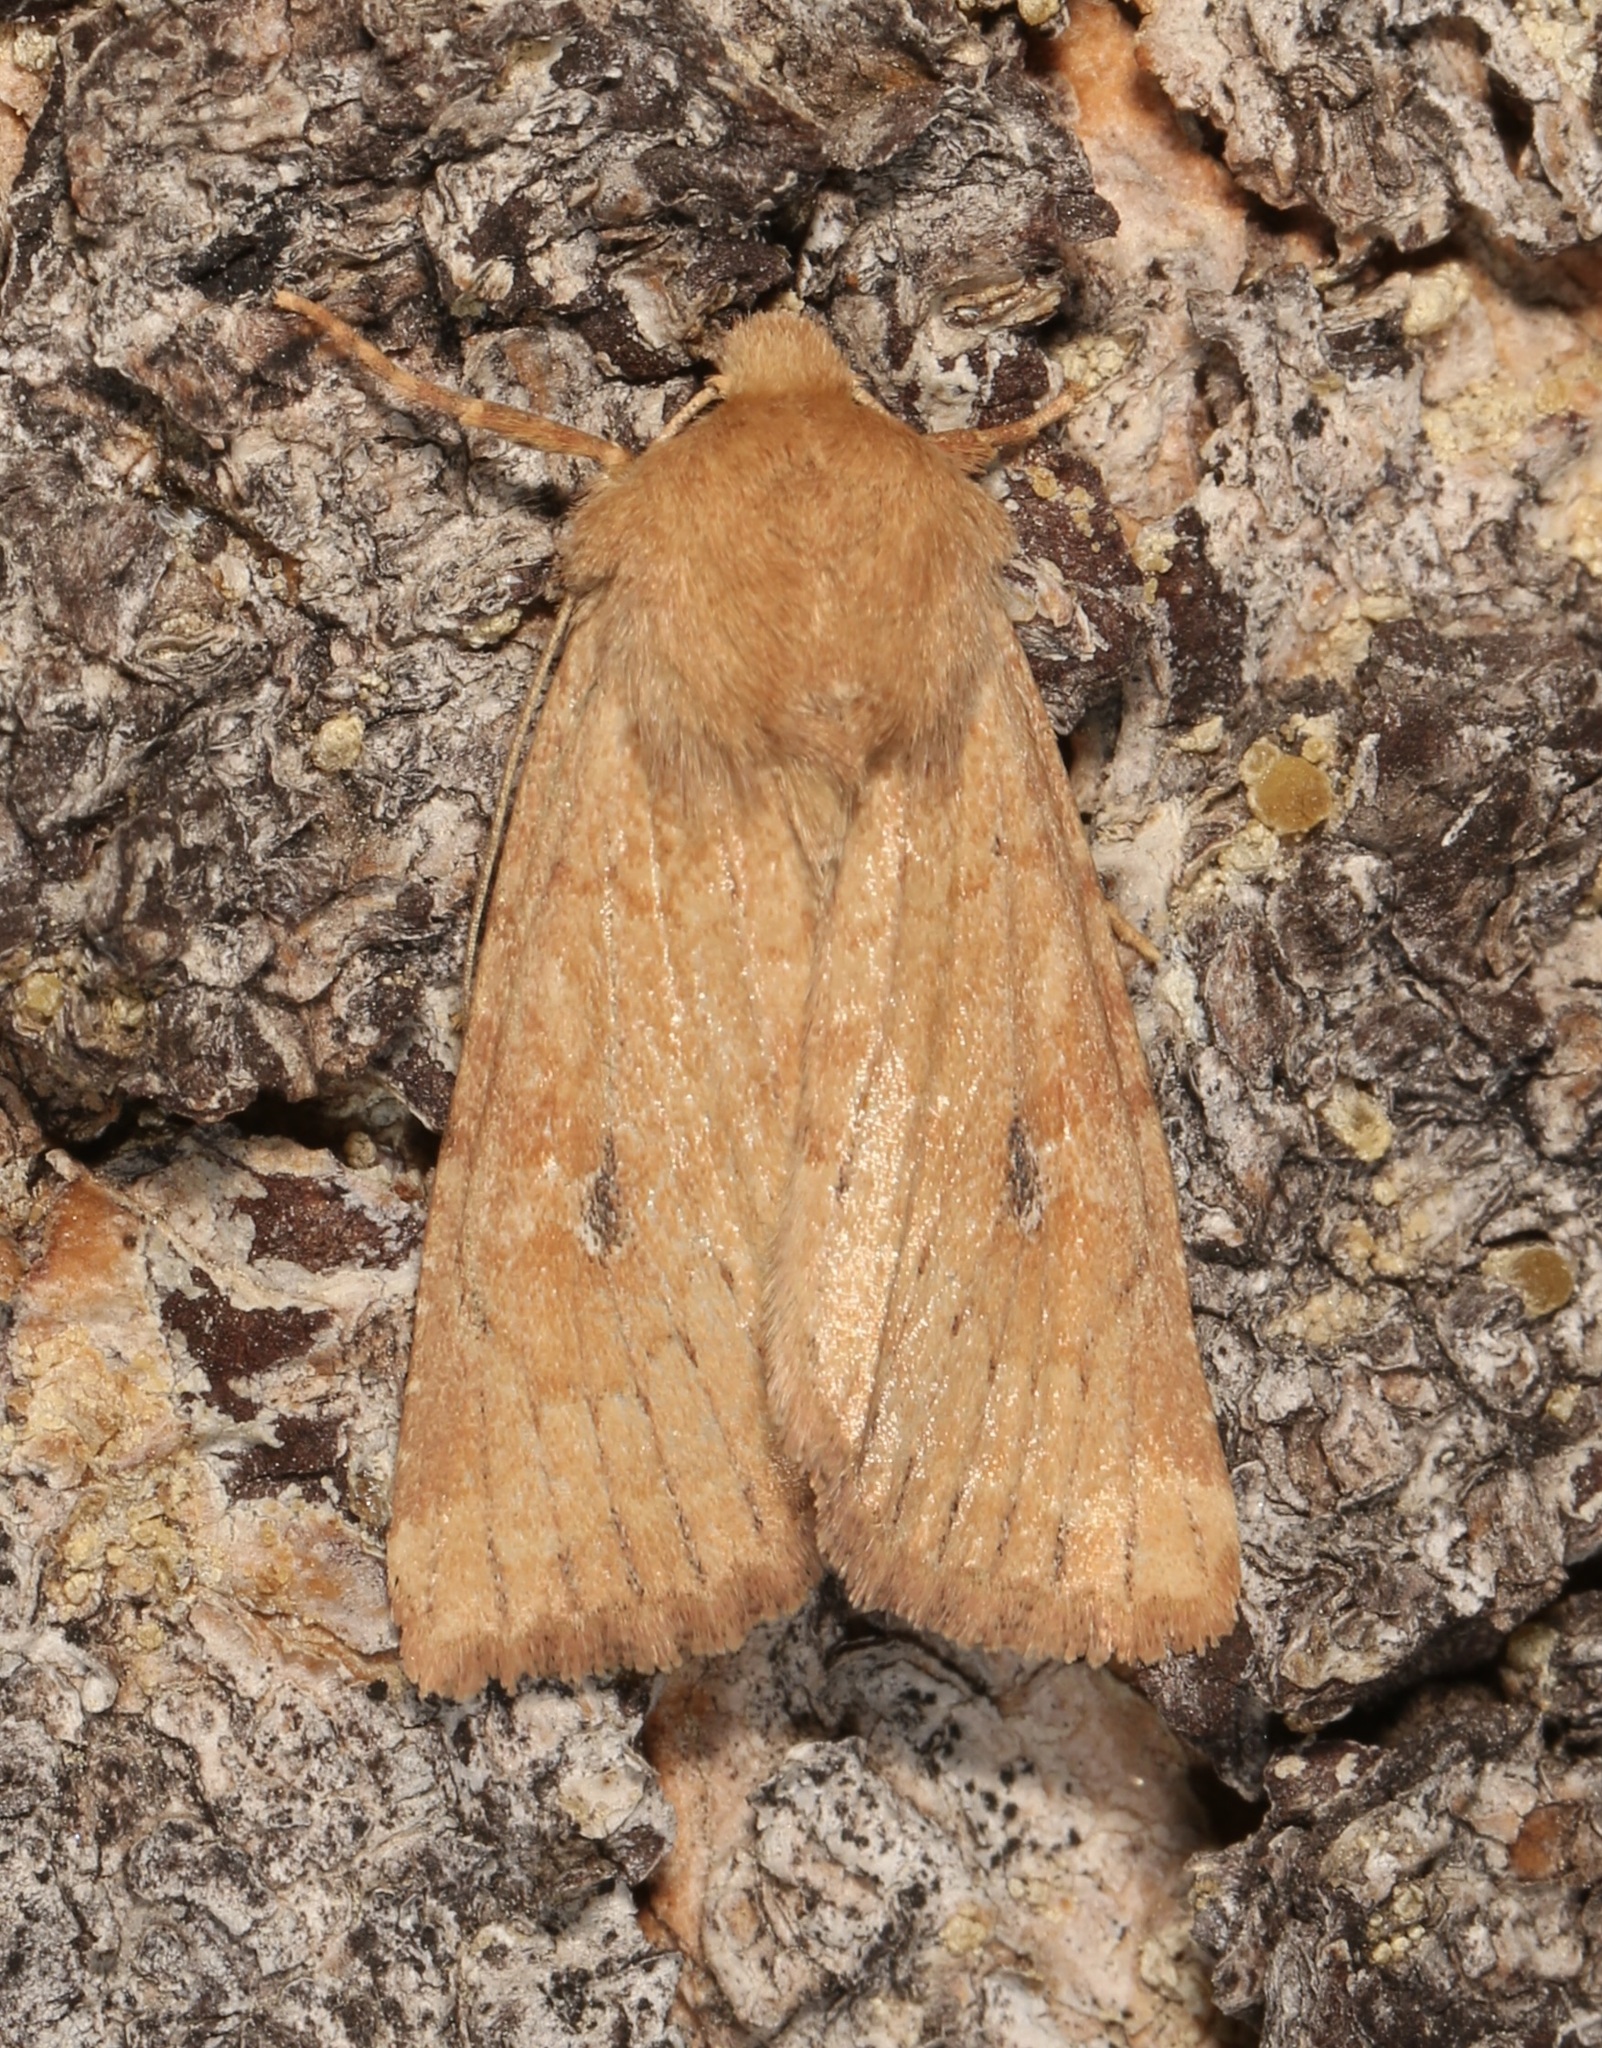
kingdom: Animalia
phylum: Arthropoda
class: Insecta
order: Lepidoptera
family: Noctuidae
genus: Apamea
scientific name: Apamea inficita
